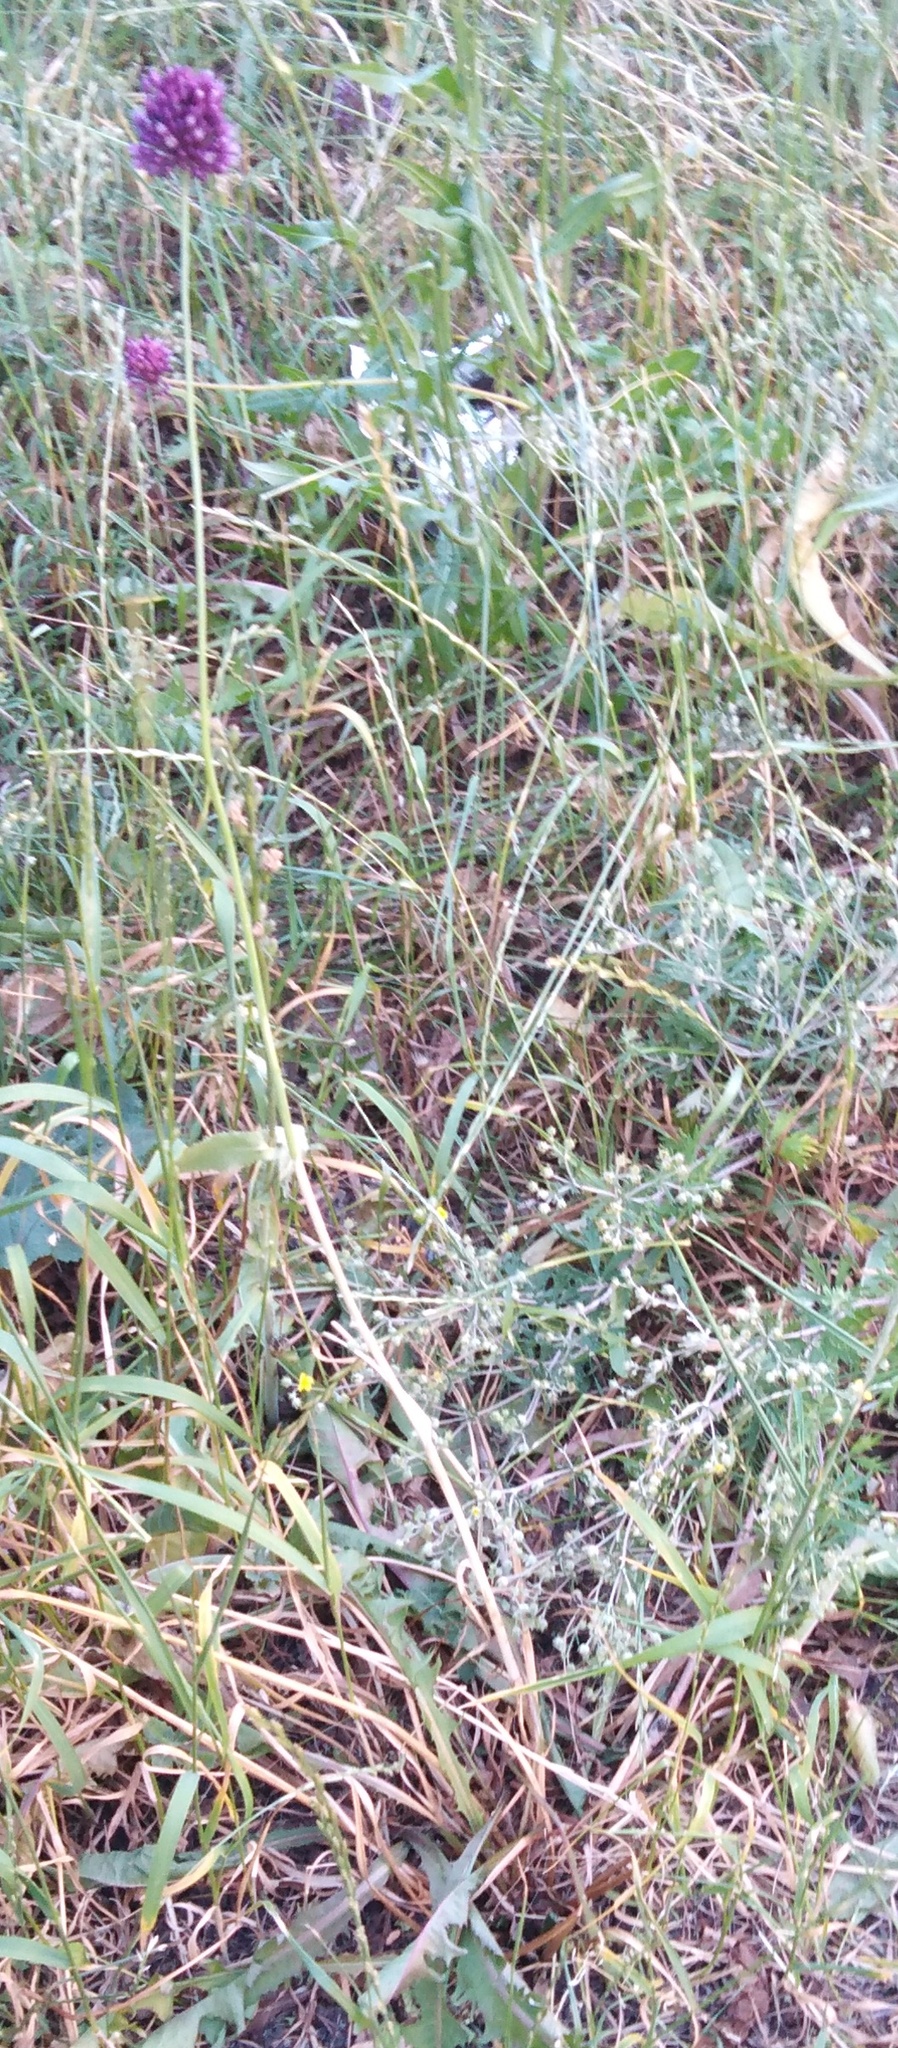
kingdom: Plantae
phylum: Tracheophyta
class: Liliopsida
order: Asparagales
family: Amaryllidaceae
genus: Allium
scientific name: Allium rotundum
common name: Sand leek
